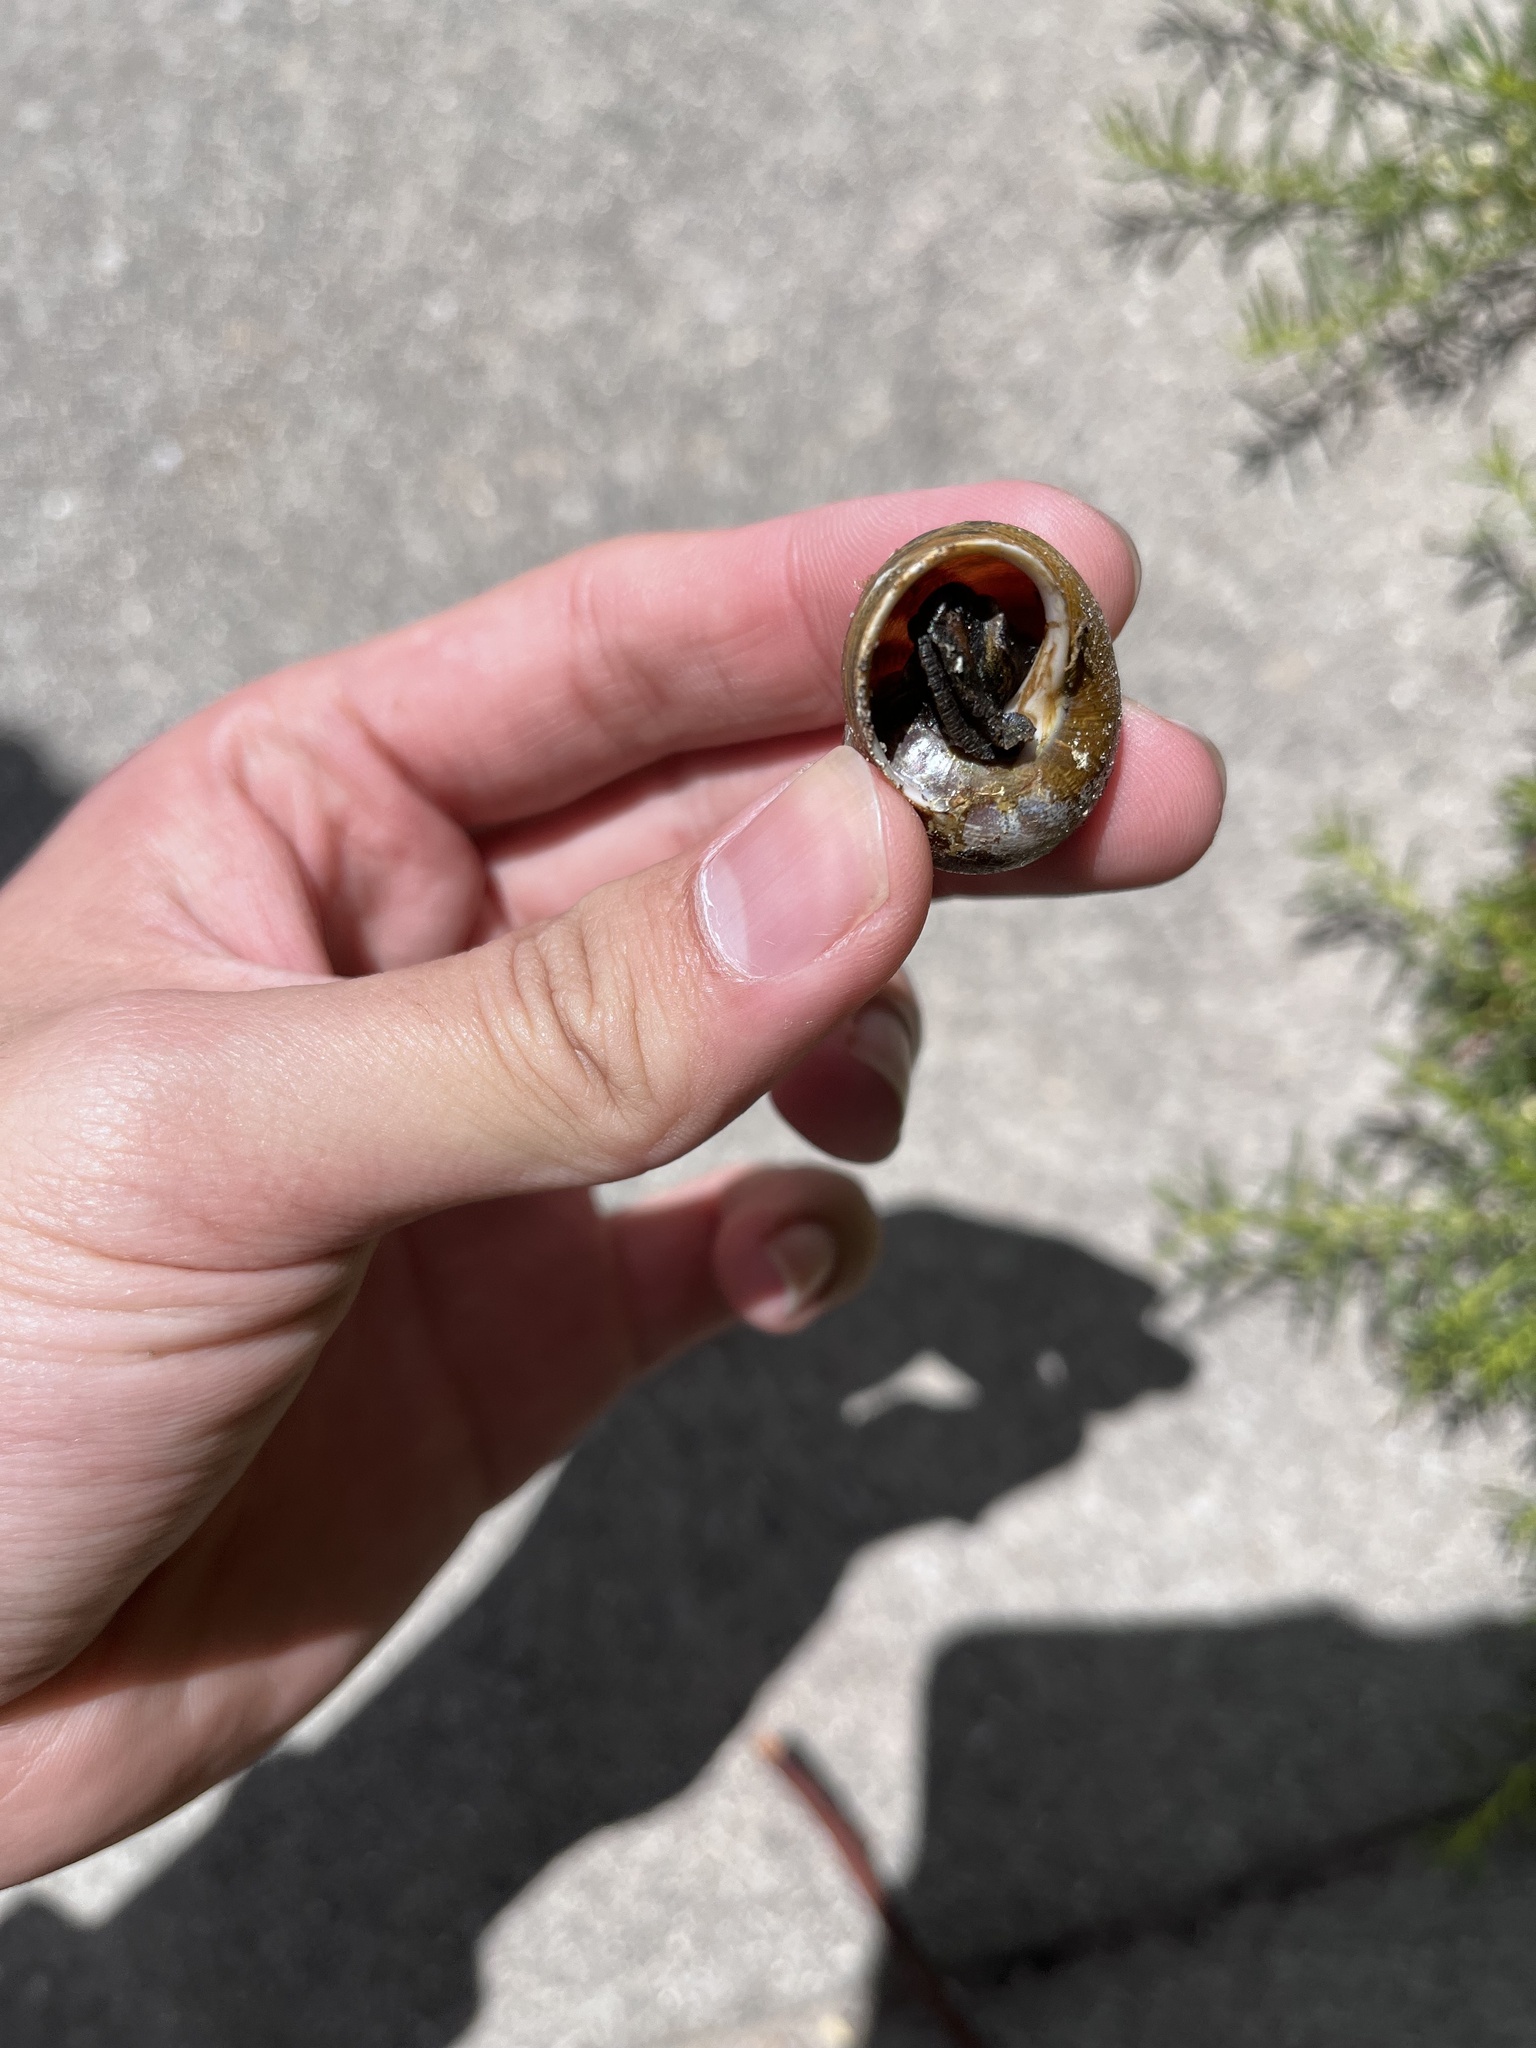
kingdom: Animalia
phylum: Mollusca
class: Gastropoda
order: Stylommatophora
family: Helicidae
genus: Cornu
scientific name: Cornu aspersum
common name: Brown garden snail
